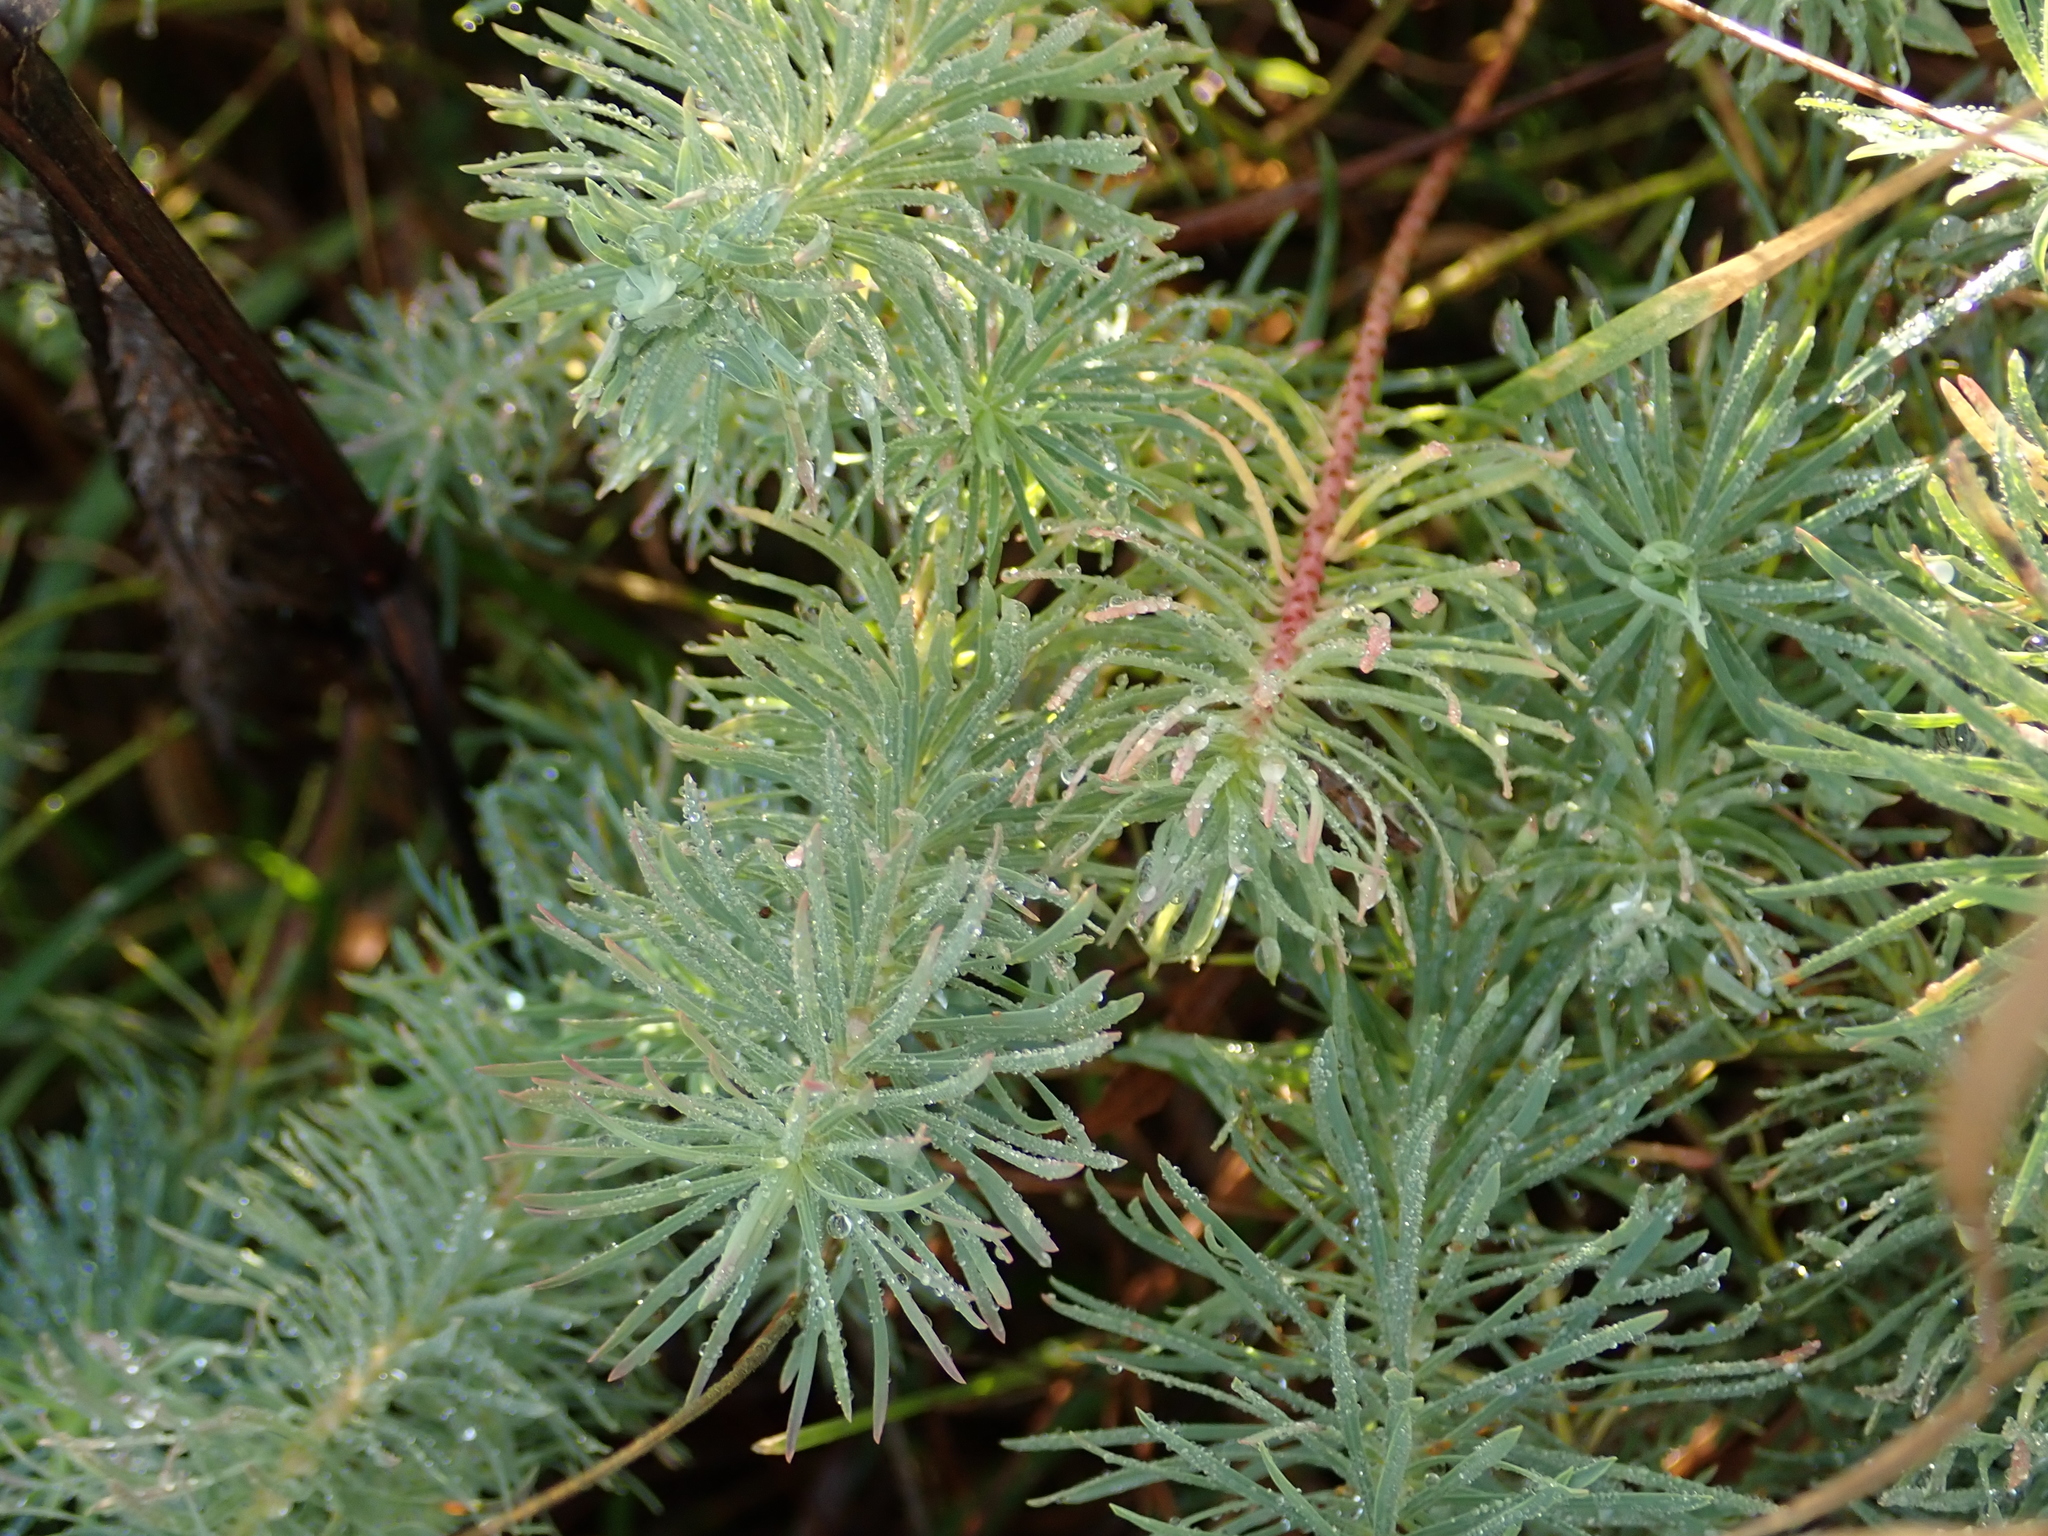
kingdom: Plantae
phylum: Tracheophyta
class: Magnoliopsida
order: Malpighiales
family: Euphorbiaceae
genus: Euphorbia
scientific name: Euphorbia cyparissias
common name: Cypress spurge
